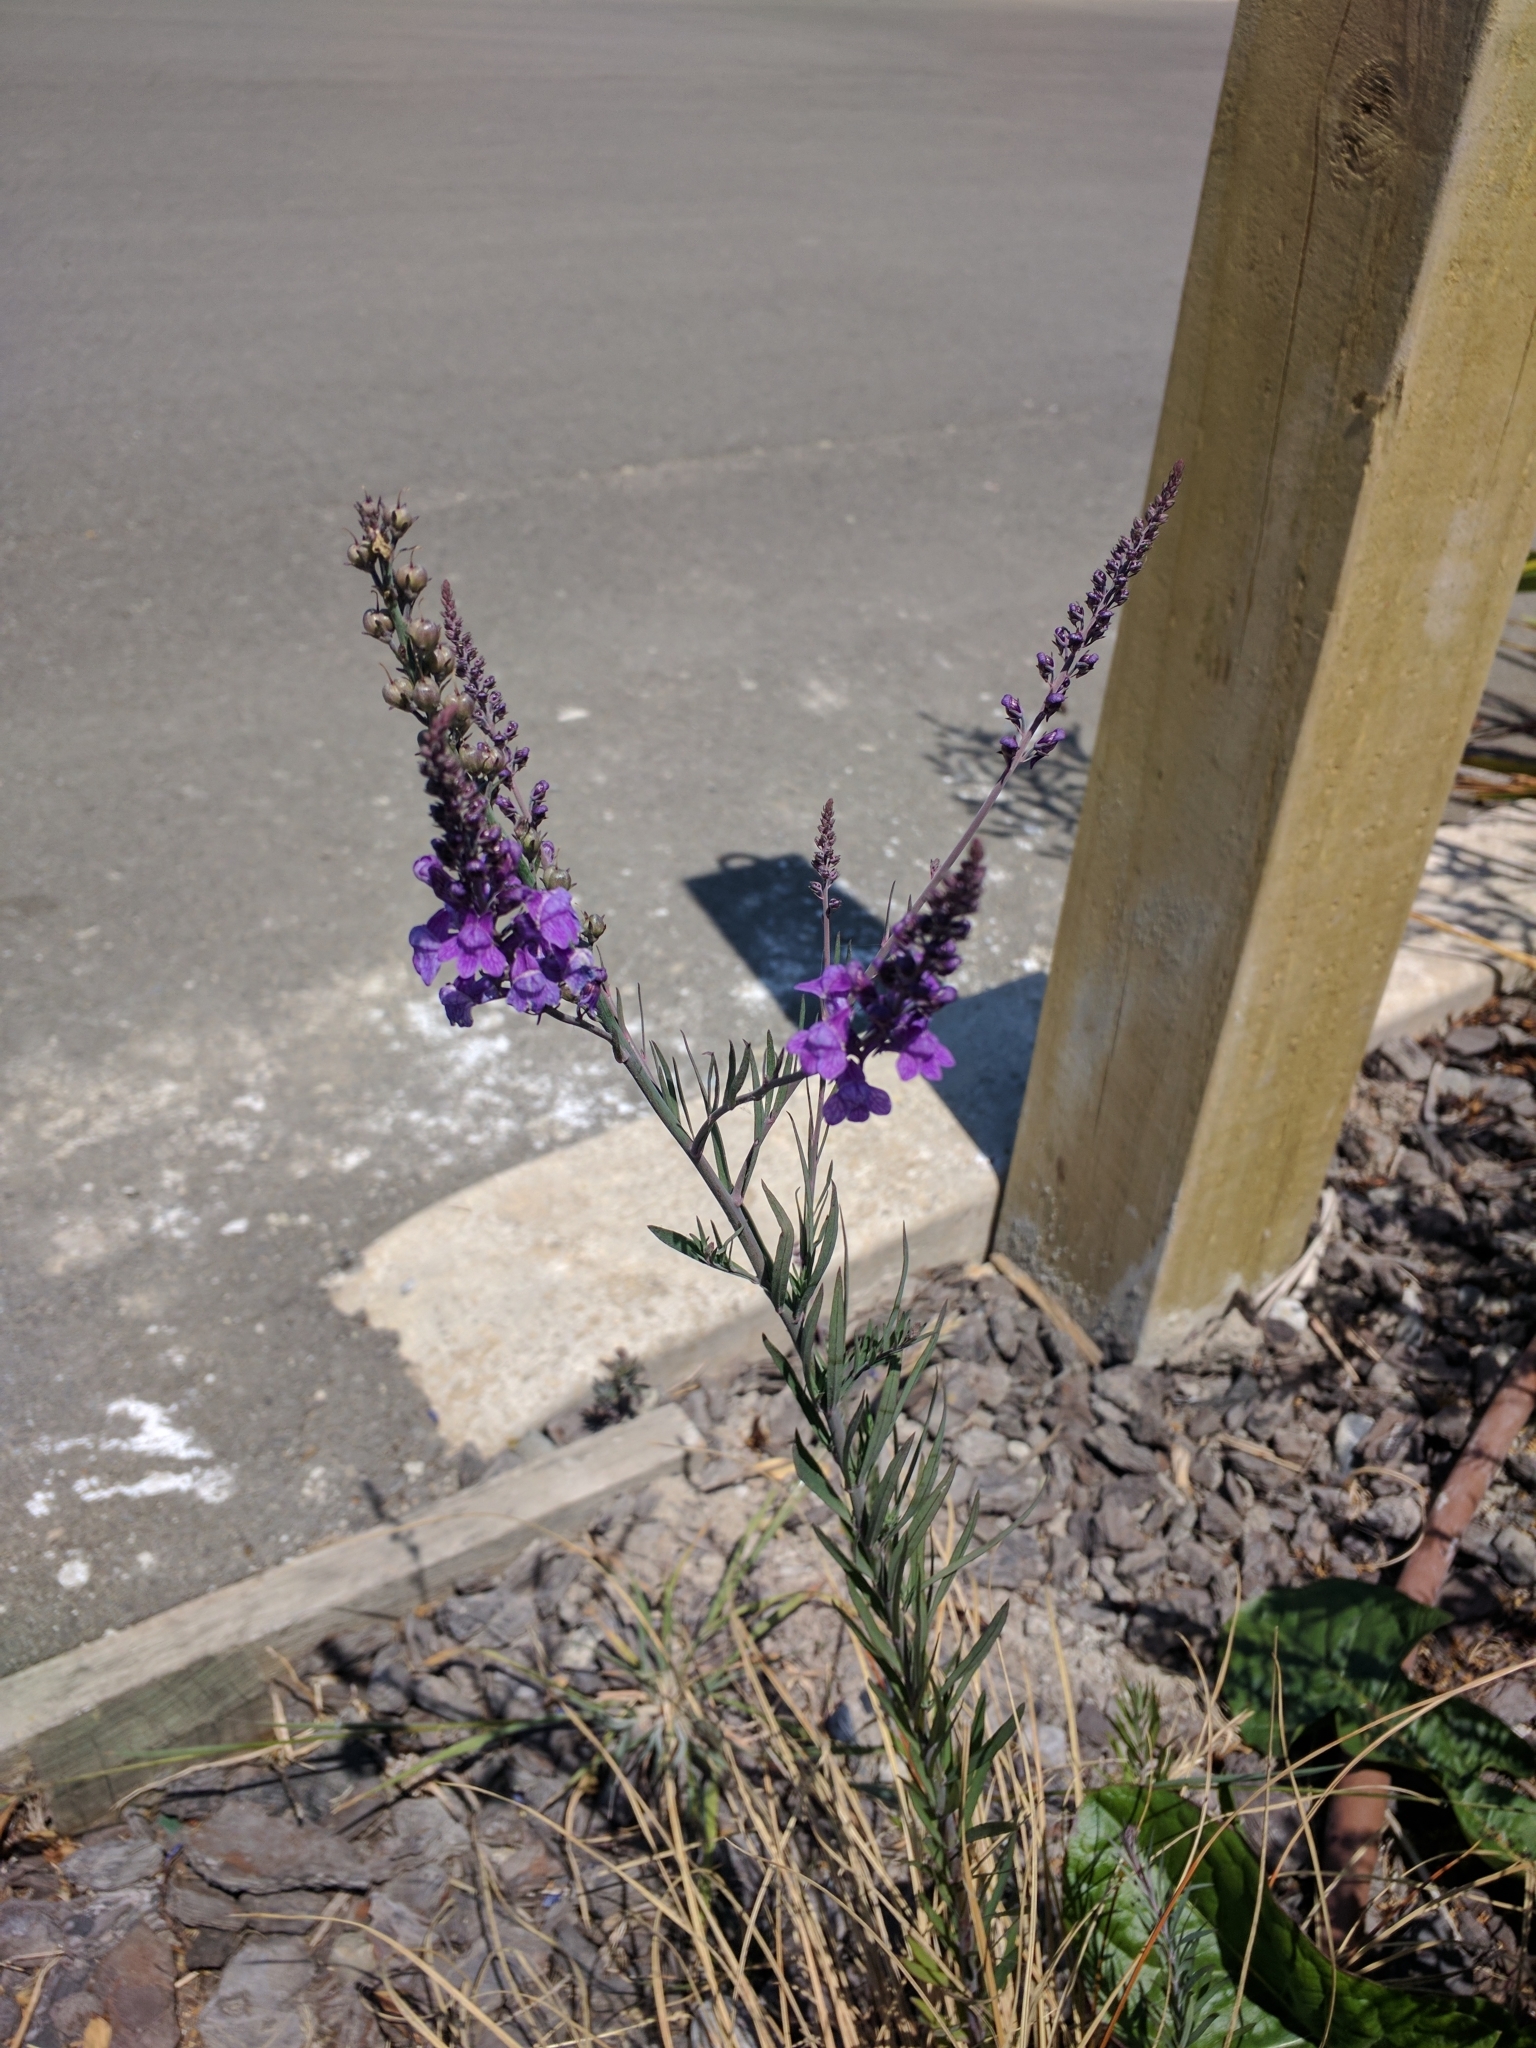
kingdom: Plantae
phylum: Tracheophyta
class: Magnoliopsida
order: Lamiales
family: Plantaginaceae
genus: Linaria
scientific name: Linaria purpurea
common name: Purple toadflax
